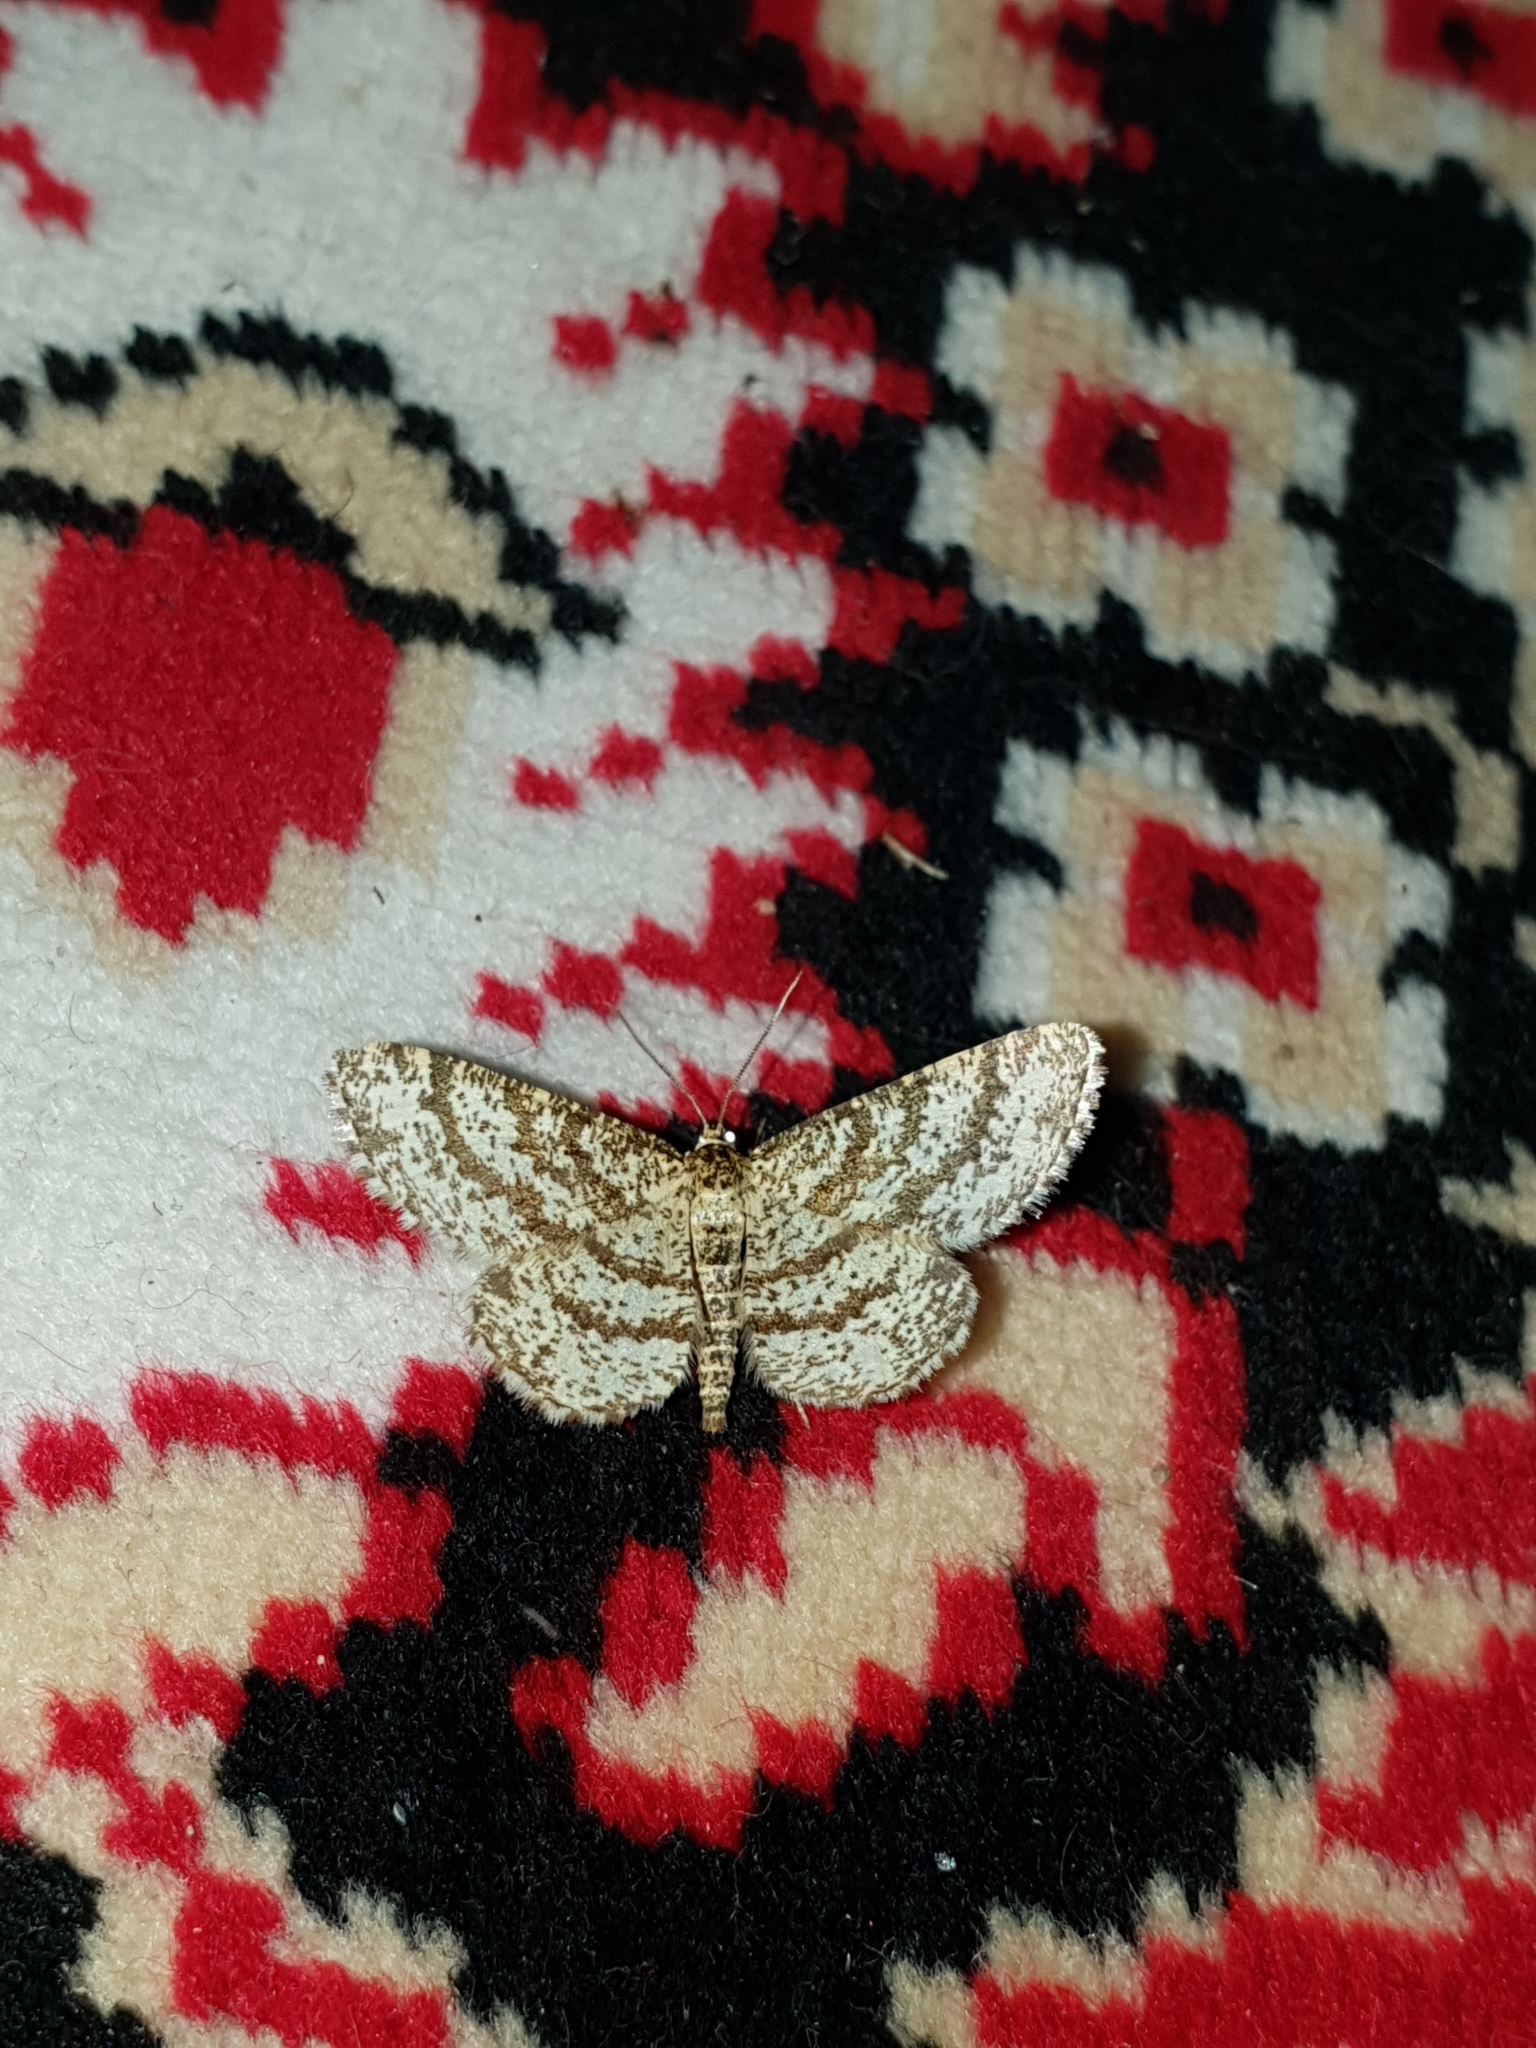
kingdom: Animalia
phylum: Arthropoda
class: Insecta
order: Lepidoptera
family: Geometridae
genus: Ematurga
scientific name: Ematurga atomaria
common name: Common heath
